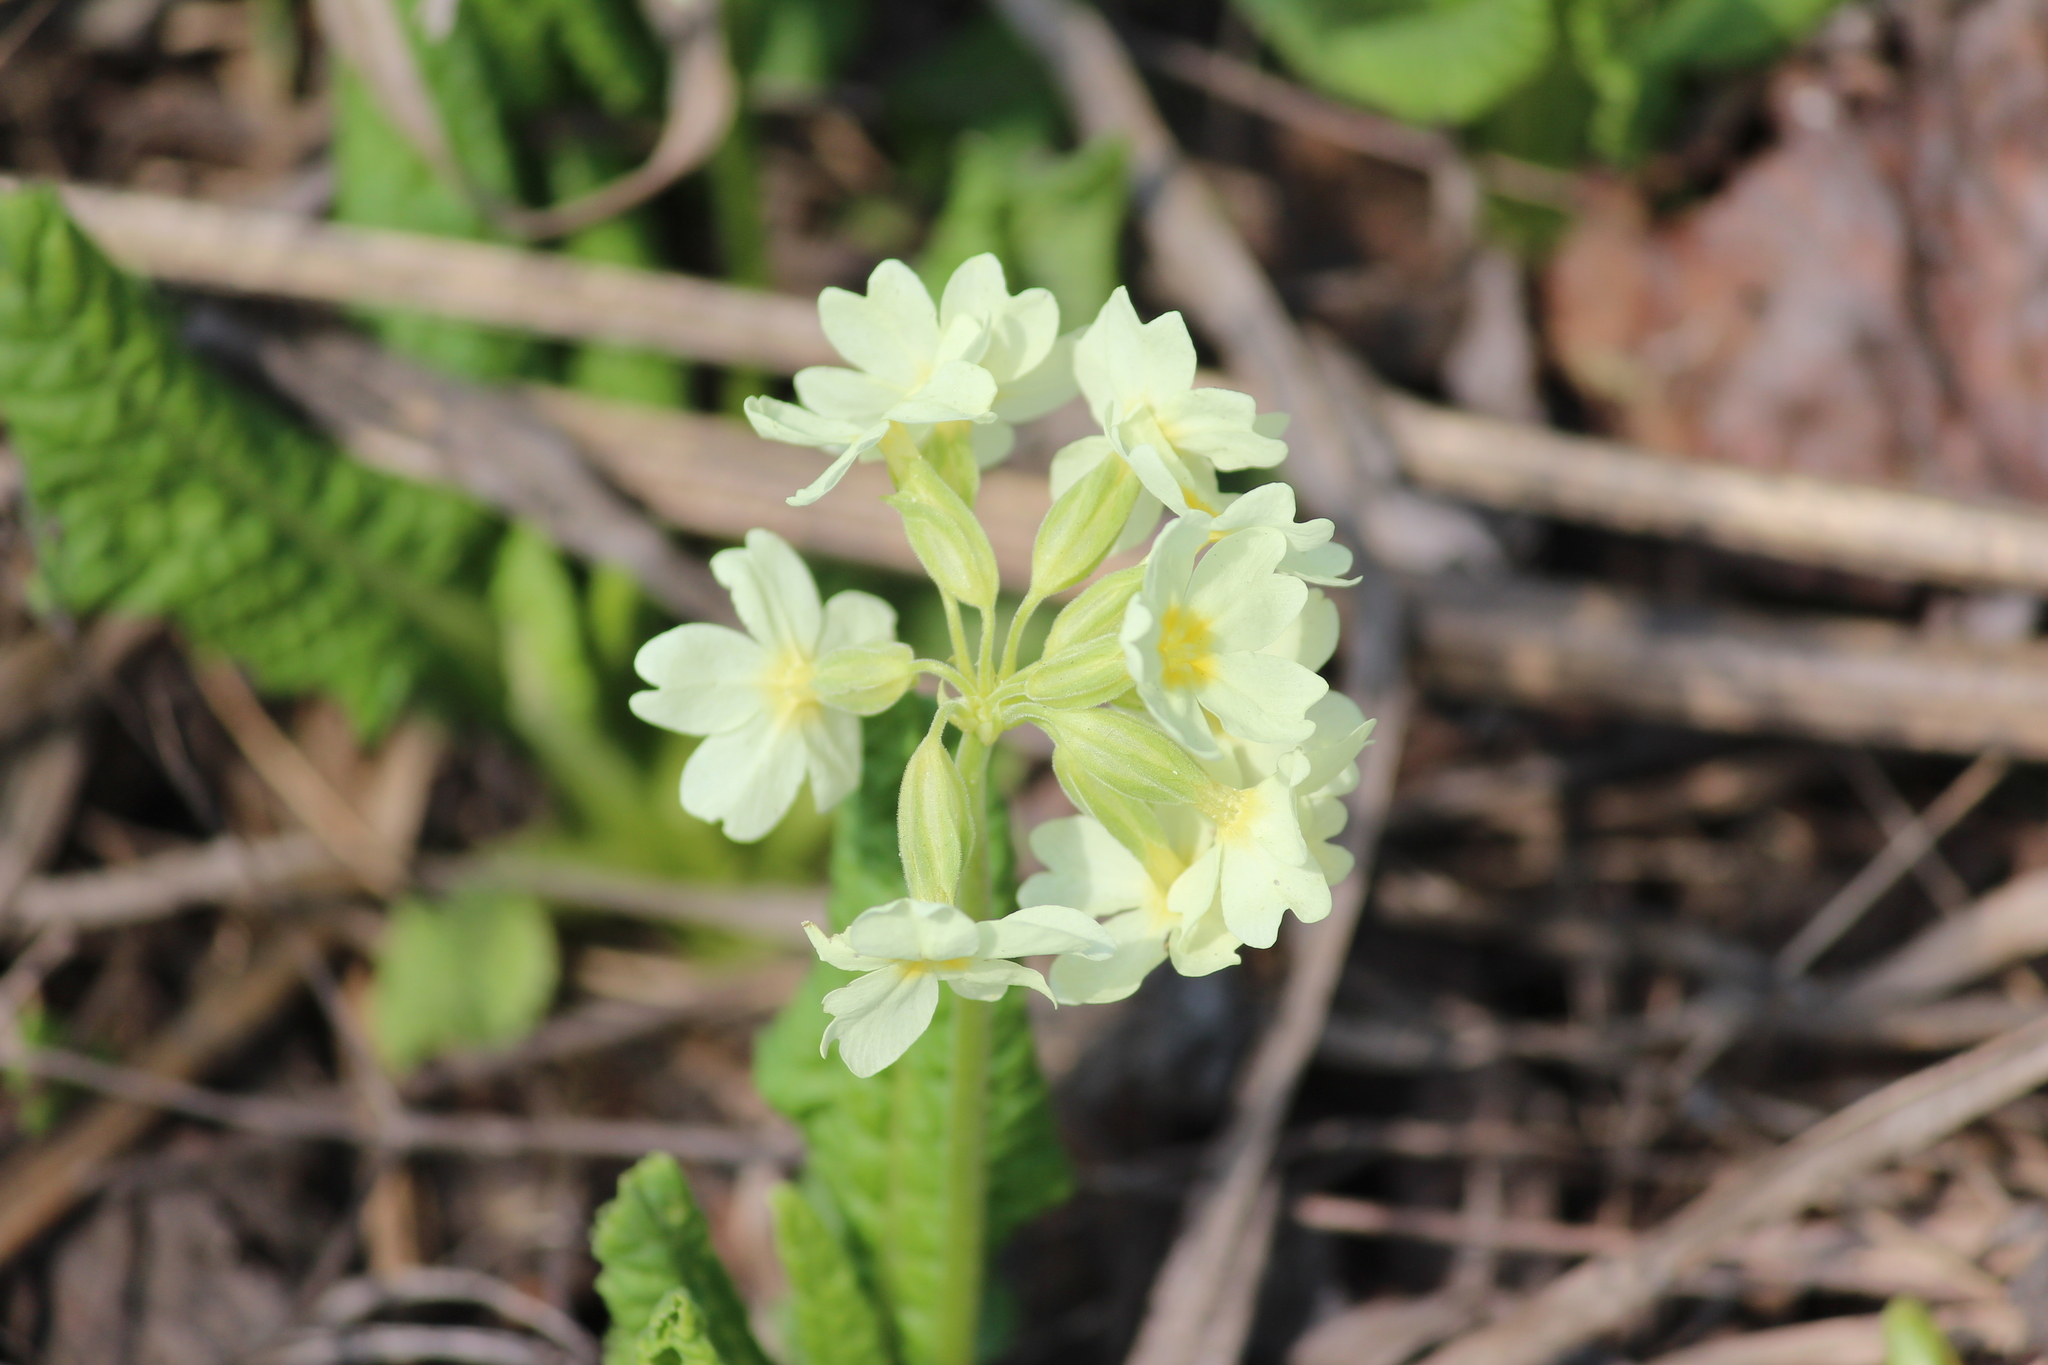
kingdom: Plantae
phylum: Tracheophyta
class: Magnoliopsida
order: Ericales
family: Primulaceae
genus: Primula
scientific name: Primula elatior
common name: Oxlip
